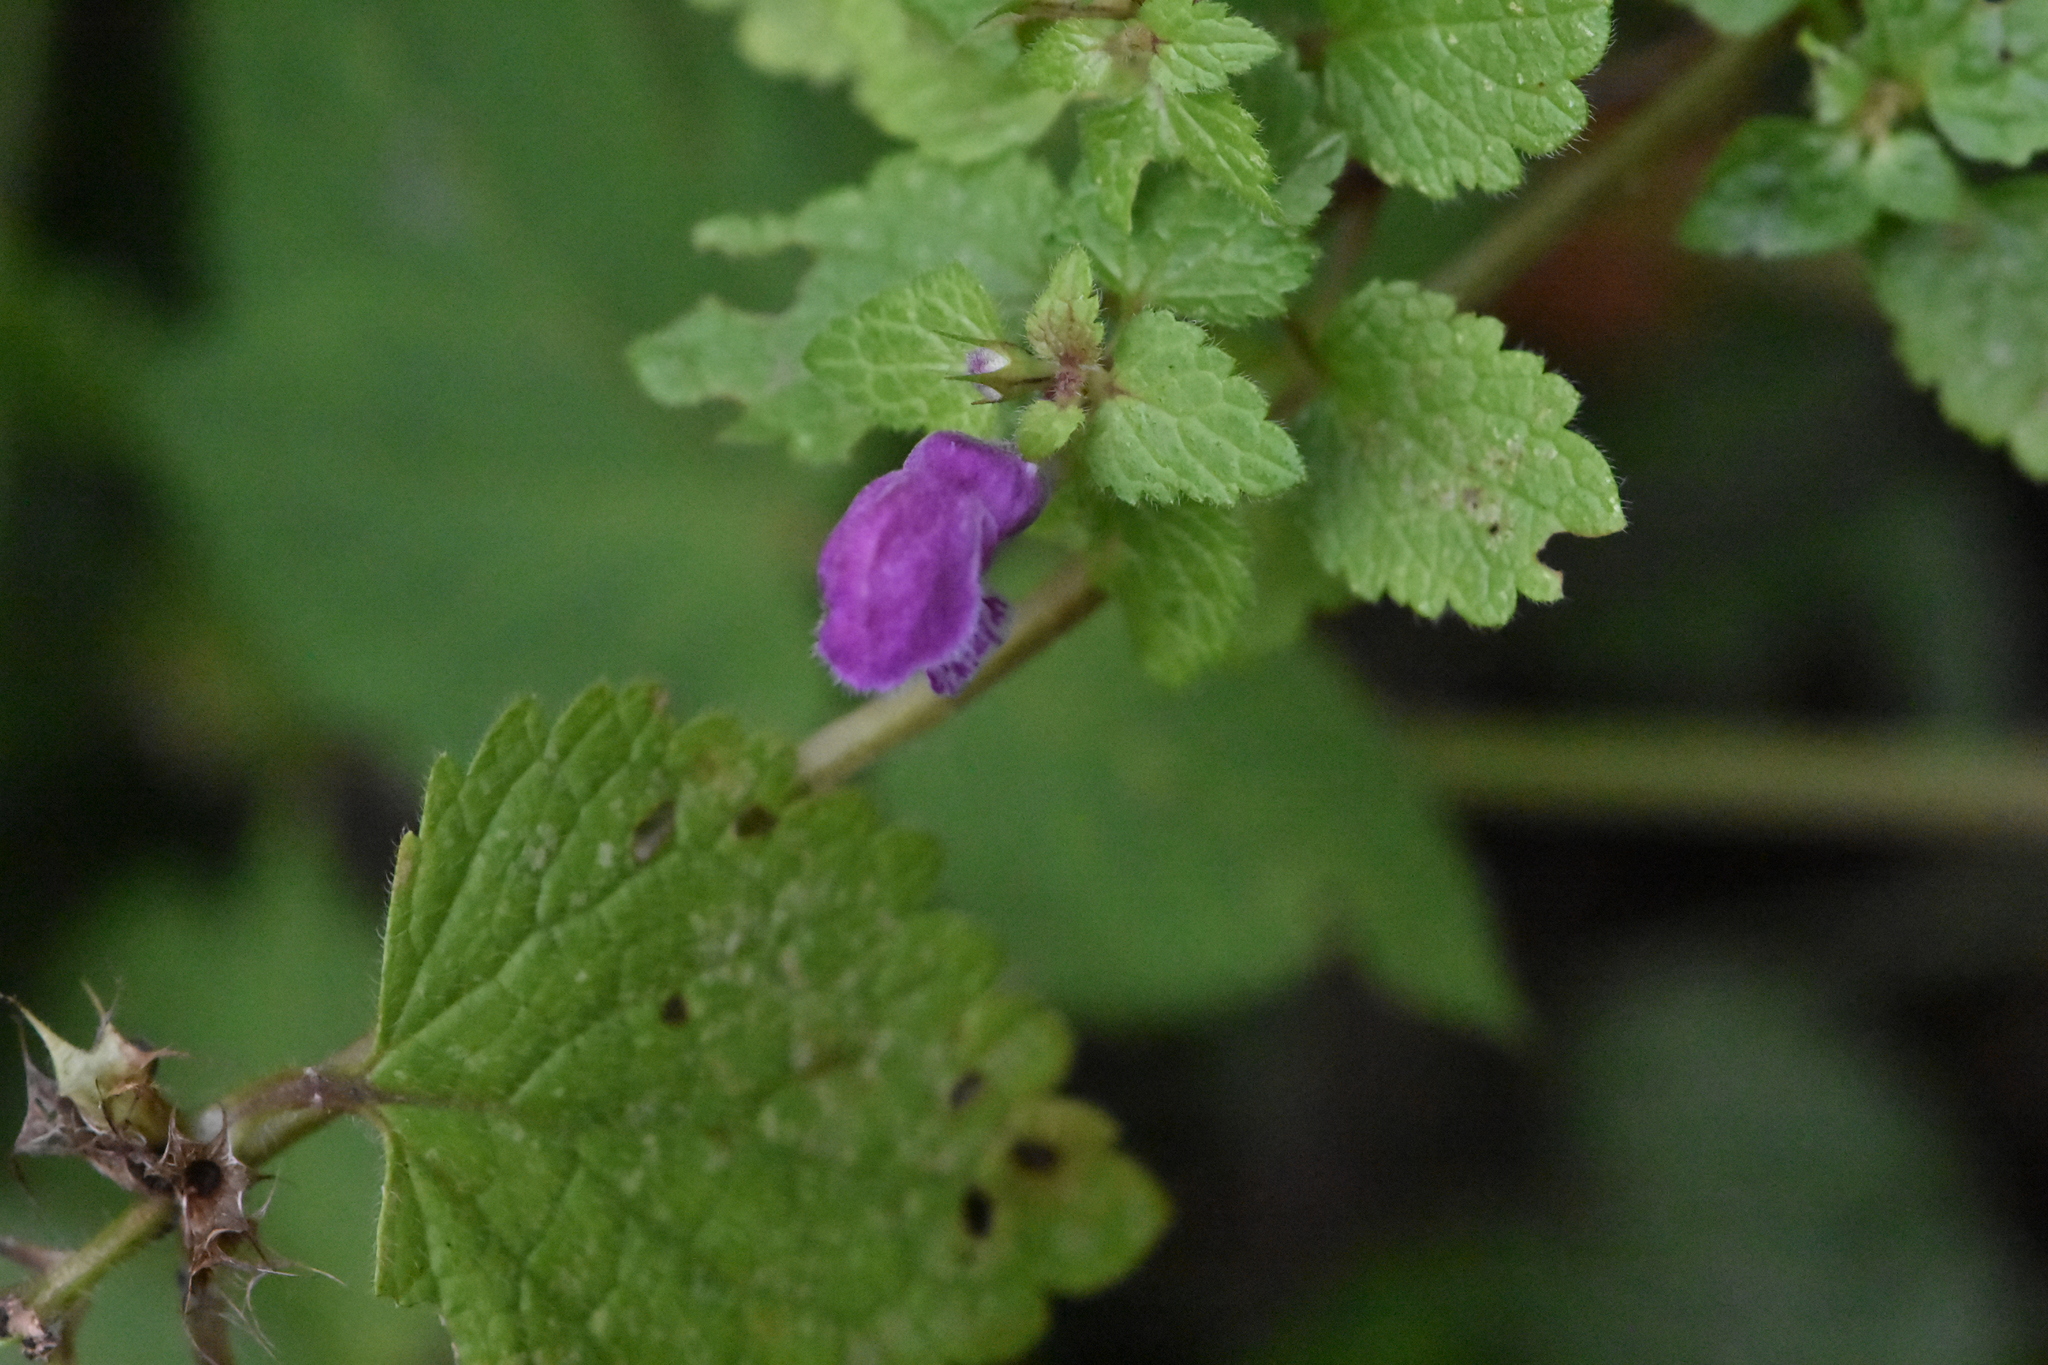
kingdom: Plantae
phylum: Tracheophyta
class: Magnoliopsida
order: Lamiales
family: Lamiaceae
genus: Lamium
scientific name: Lamium maculatum
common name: Spotted dead-nettle
